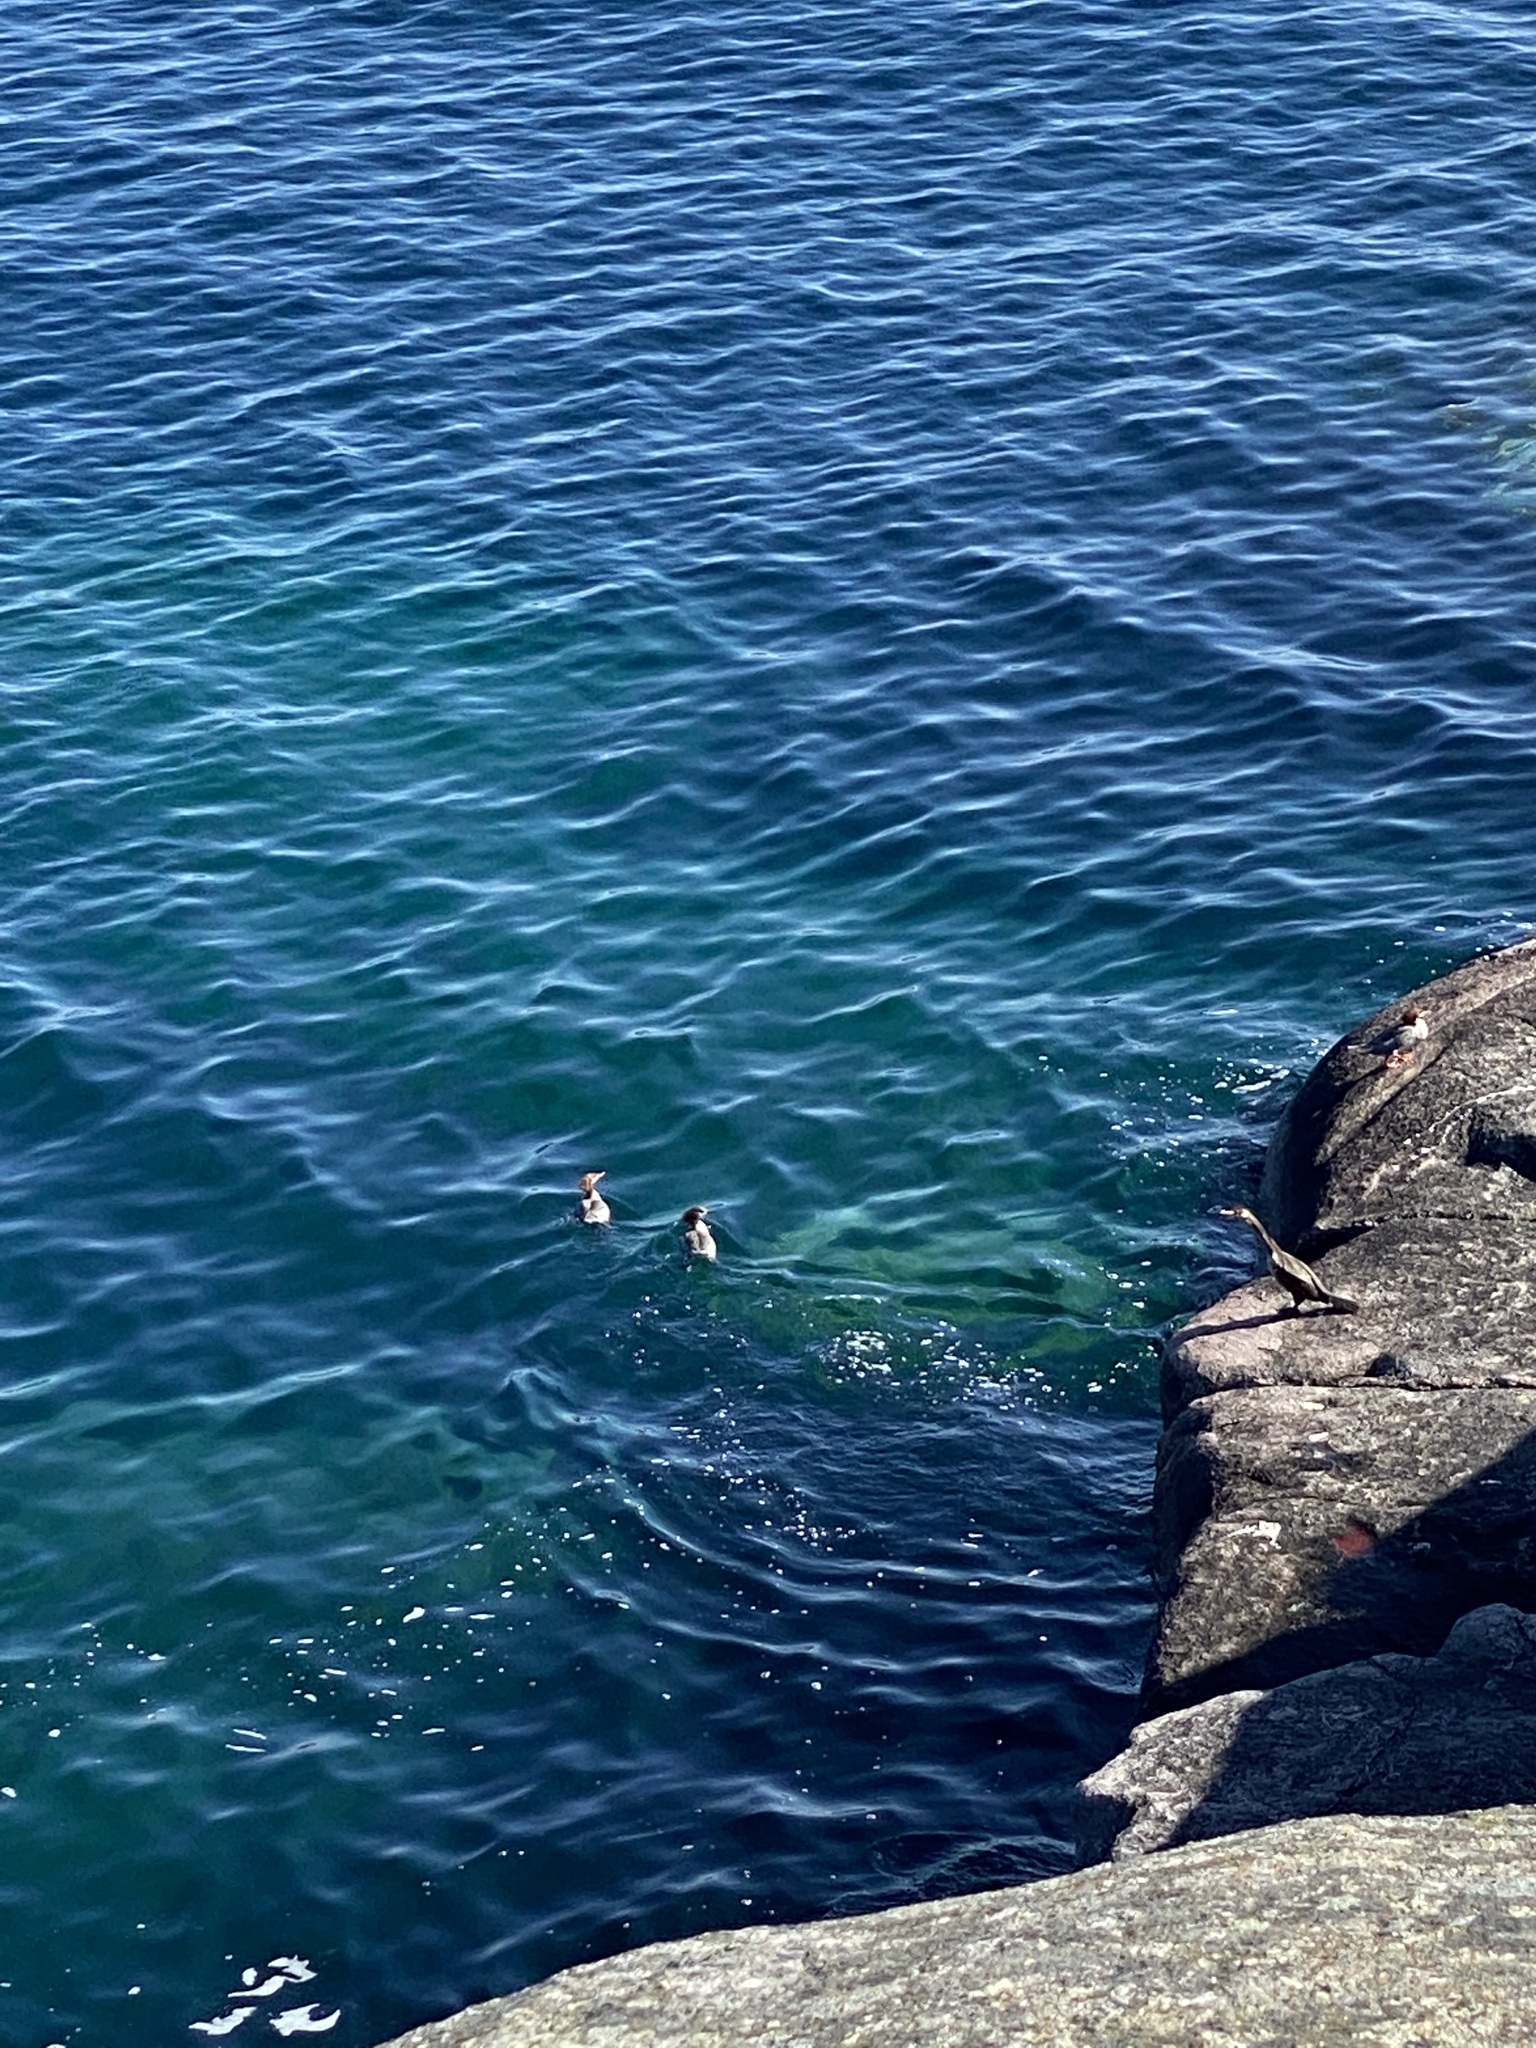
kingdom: Animalia
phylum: Chordata
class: Aves
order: Anseriformes
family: Anatidae
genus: Mergus
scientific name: Mergus merganser
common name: Common merganser
